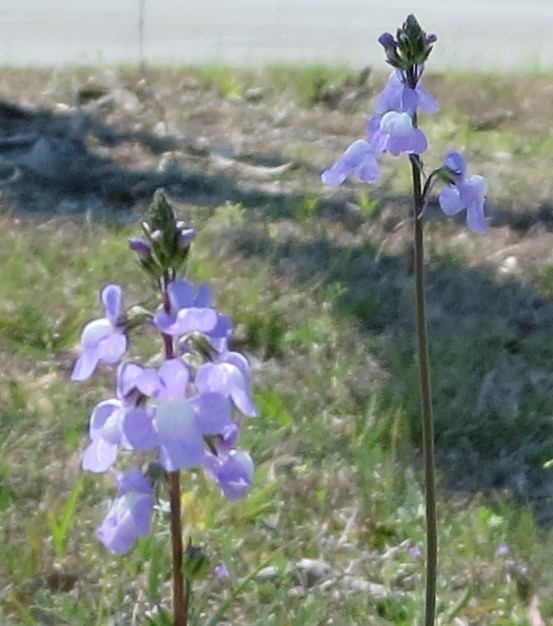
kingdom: Plantae
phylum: Tracheophyta
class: Magnoliopsida
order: Lamiales
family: Plantaginaceae
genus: Nuttallanthus
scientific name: Nuttallanthus canadensis
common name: Blue toadflax
